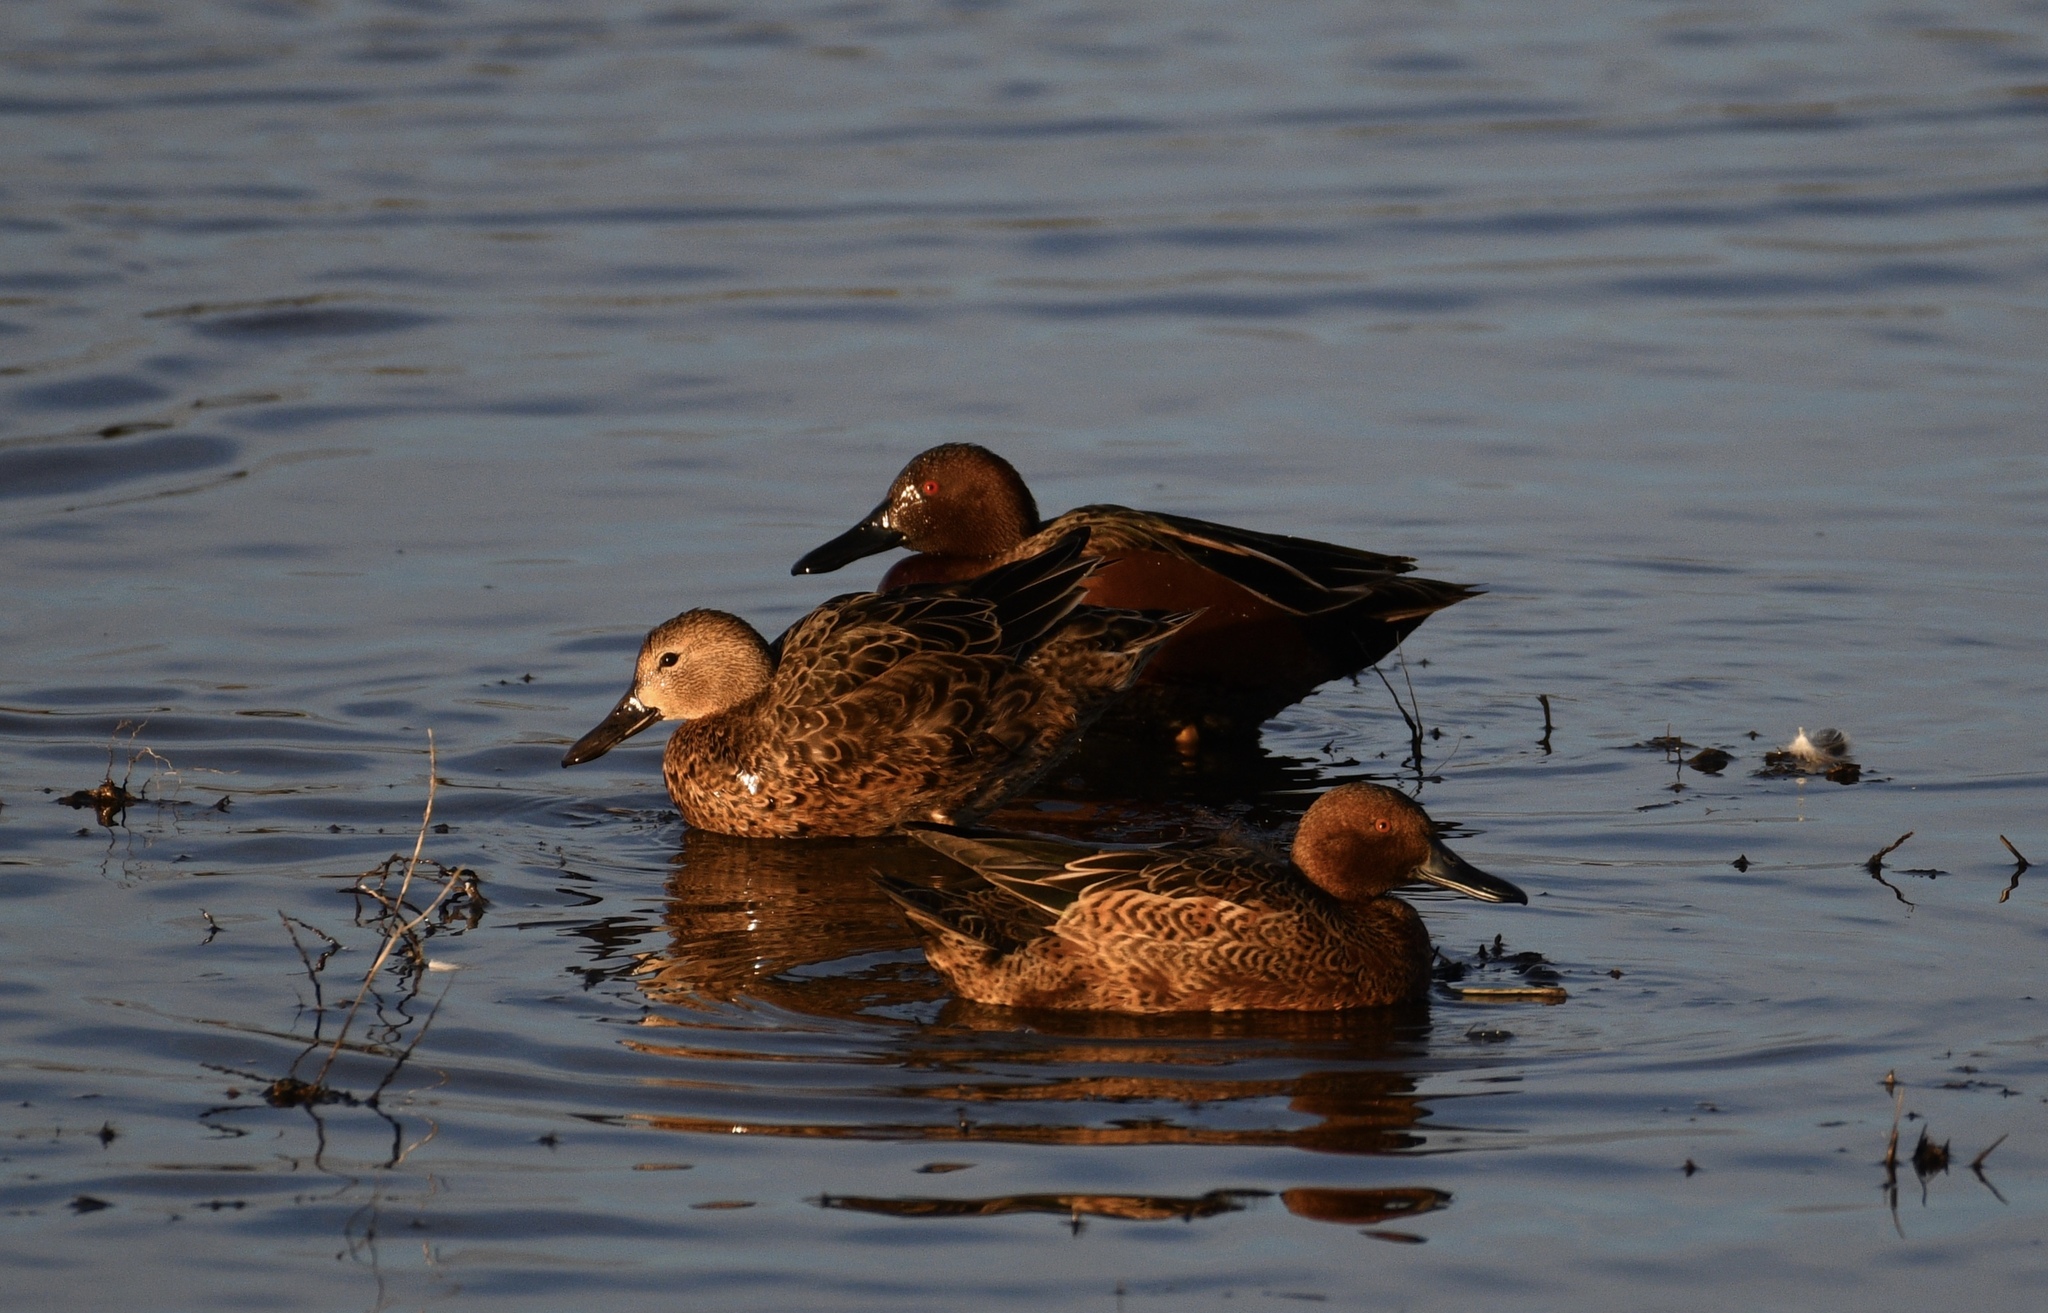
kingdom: Animalia
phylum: Chordata
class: Aves
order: Anseriformes
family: Anatidae
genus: Spatula
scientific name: Spatula cyanoptera
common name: Cinnamon teal
